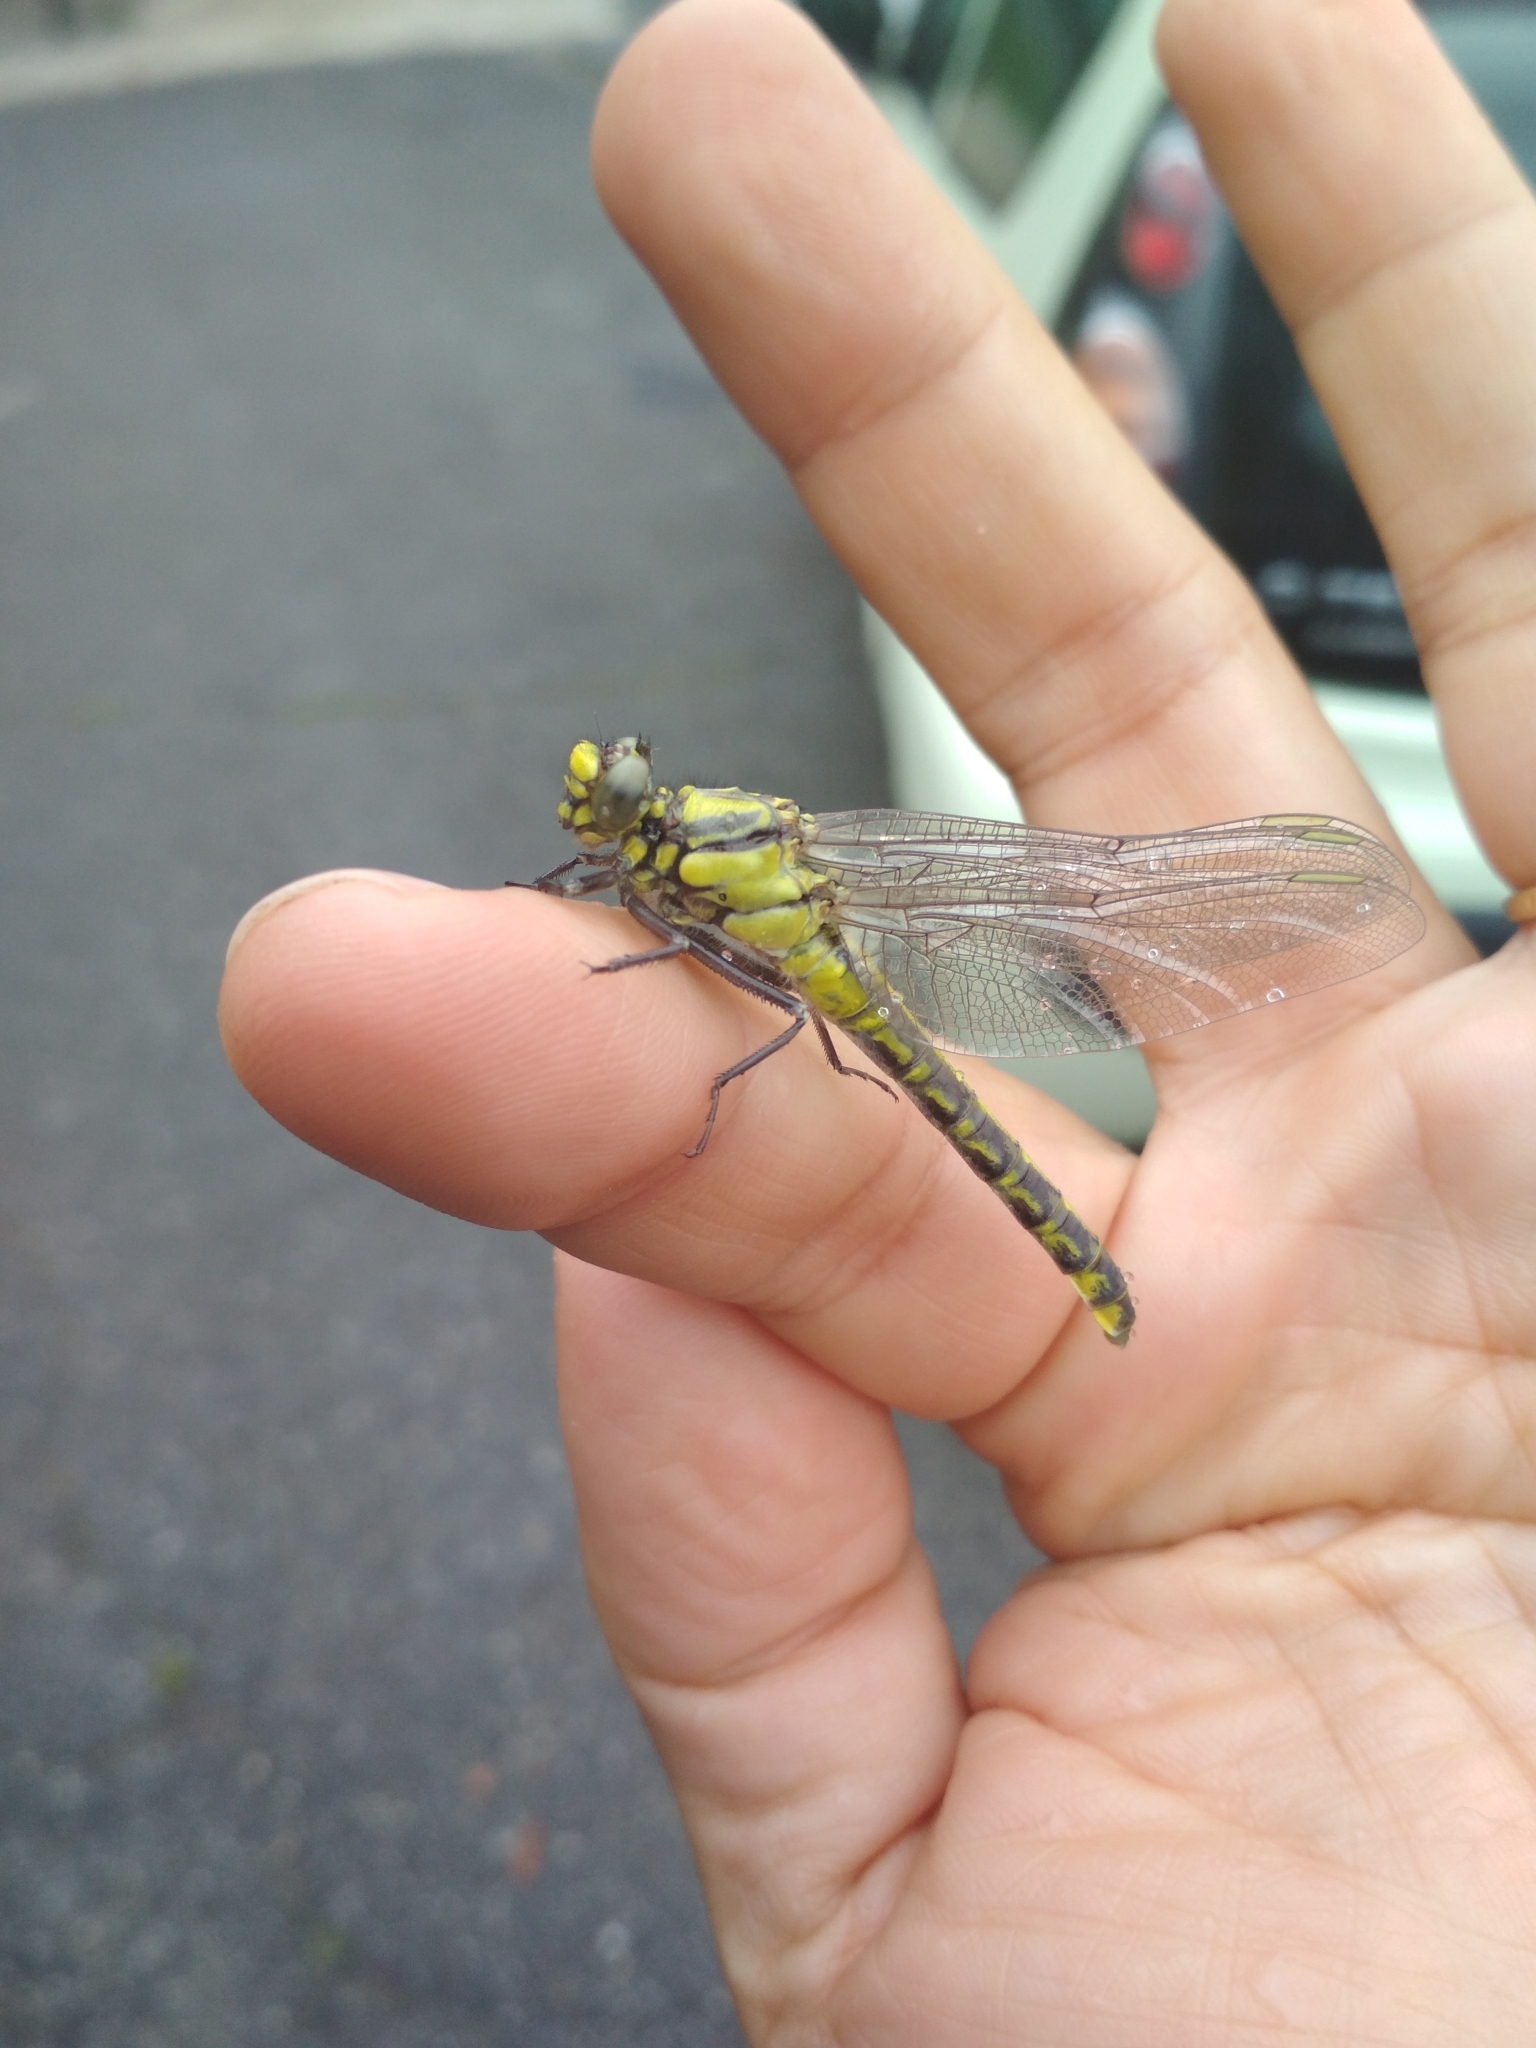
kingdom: Animalia
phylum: Arthropoda
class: Insecta
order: Odonata
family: Gomphidae
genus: Gomphus
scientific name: Gomphus vulgatissimus
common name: Club-tailed dragonfly
